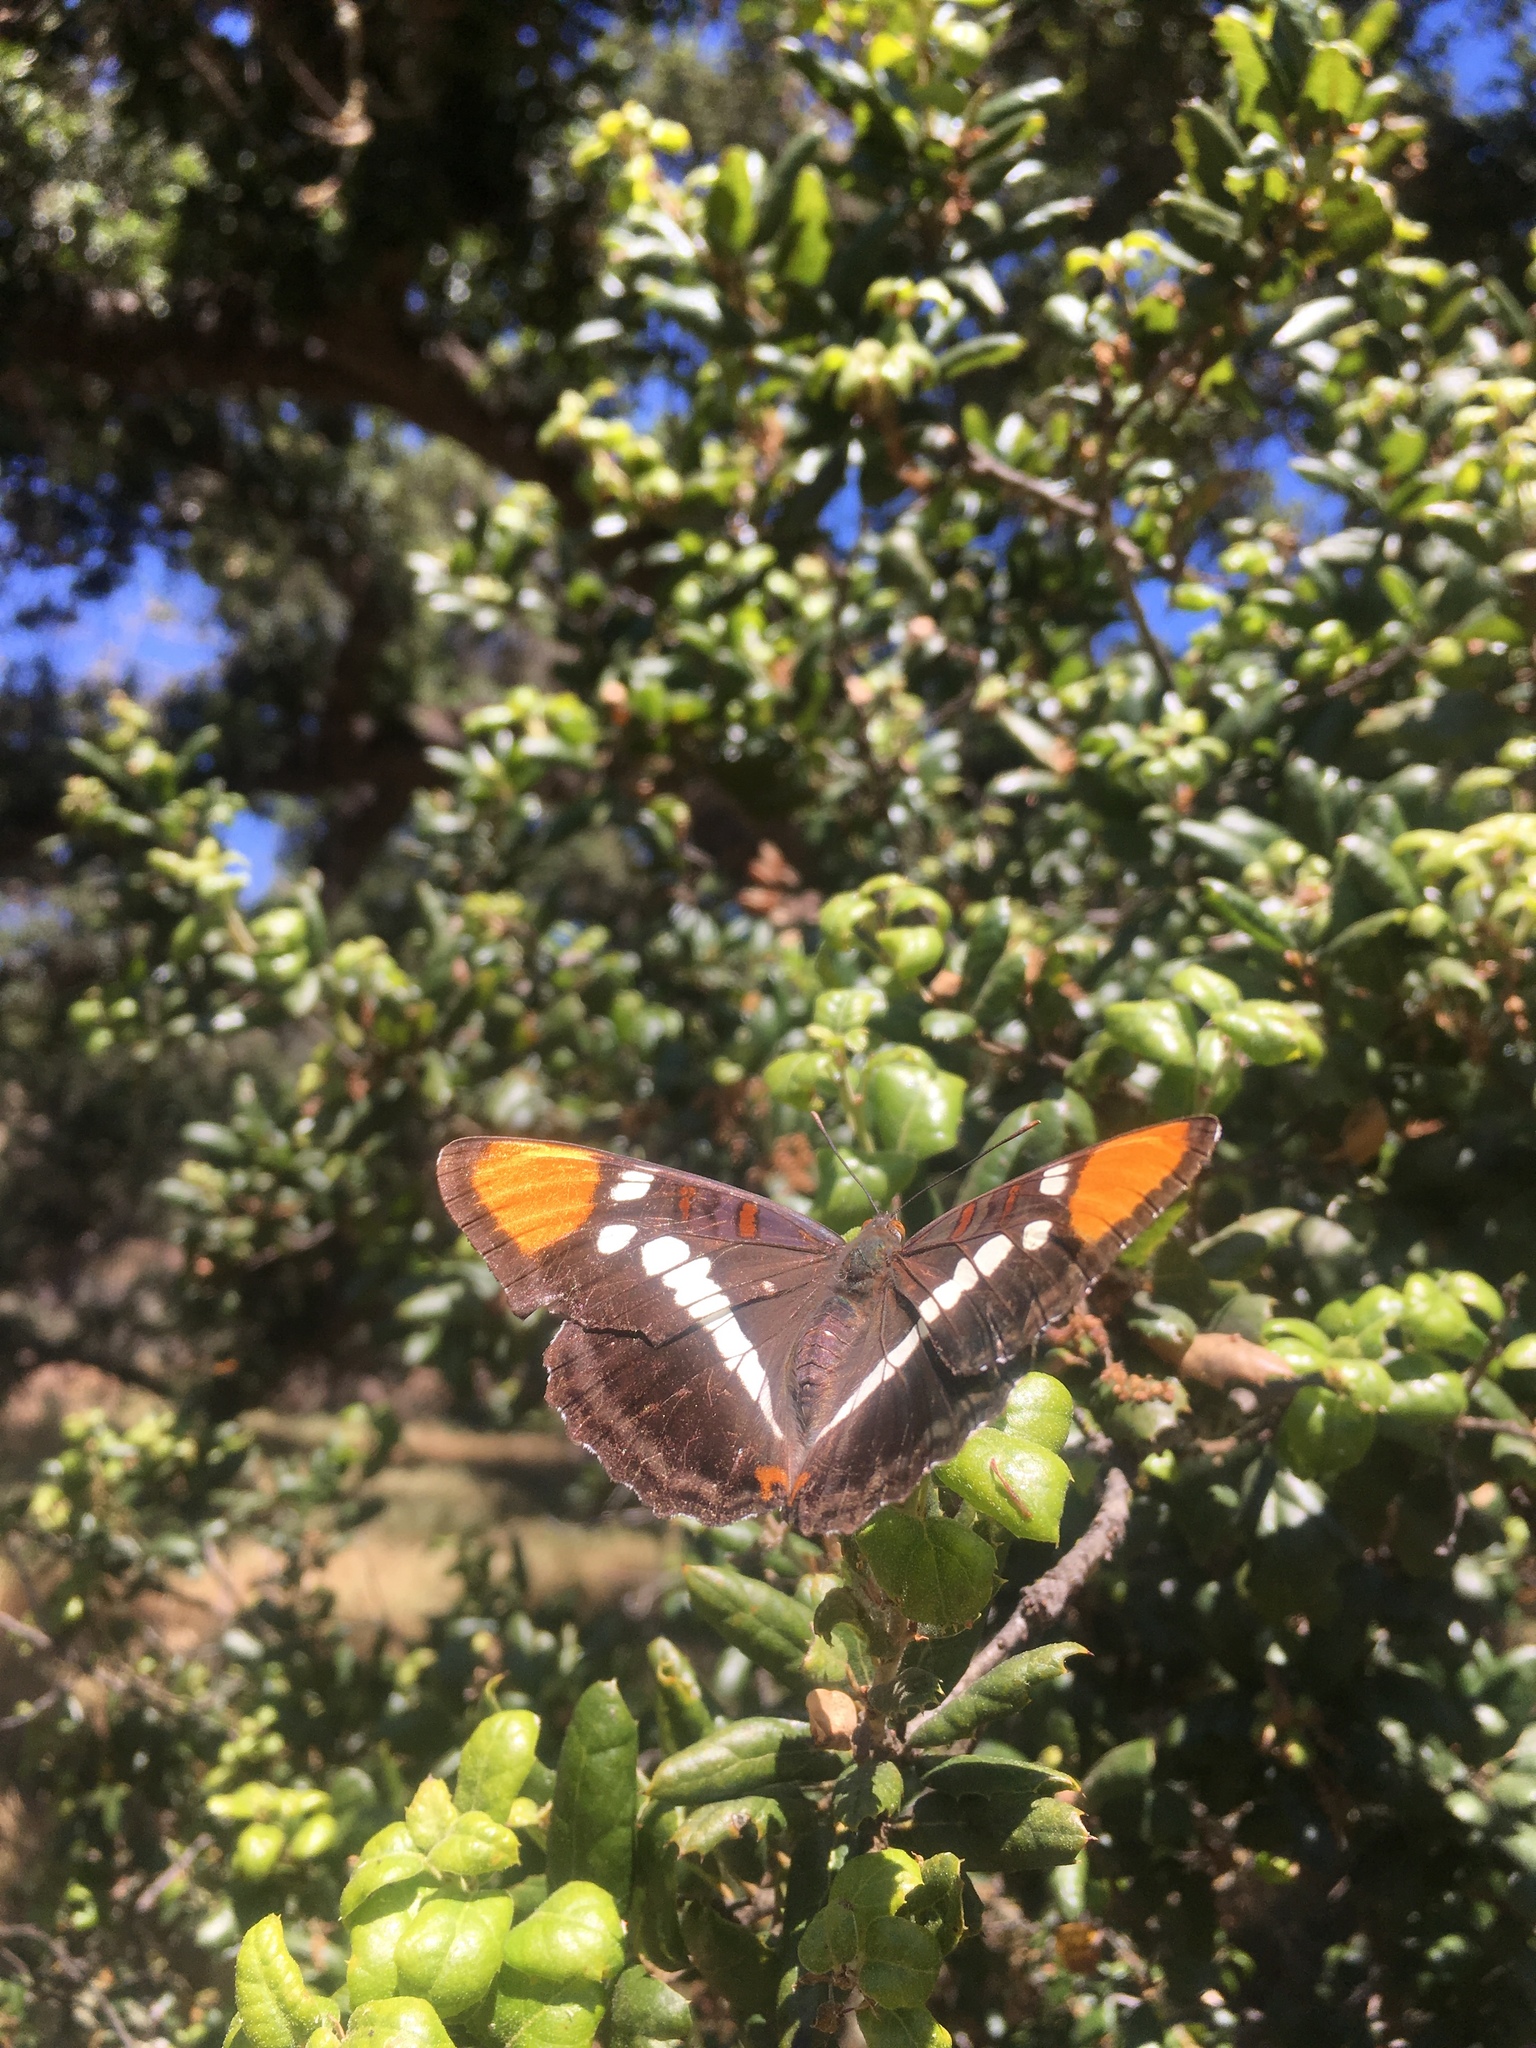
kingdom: Animalia
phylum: Arthropoda
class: Insecta
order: Lepidoptera
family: Nymphalidae
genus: Limenitis
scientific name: Limenitis bredowii
